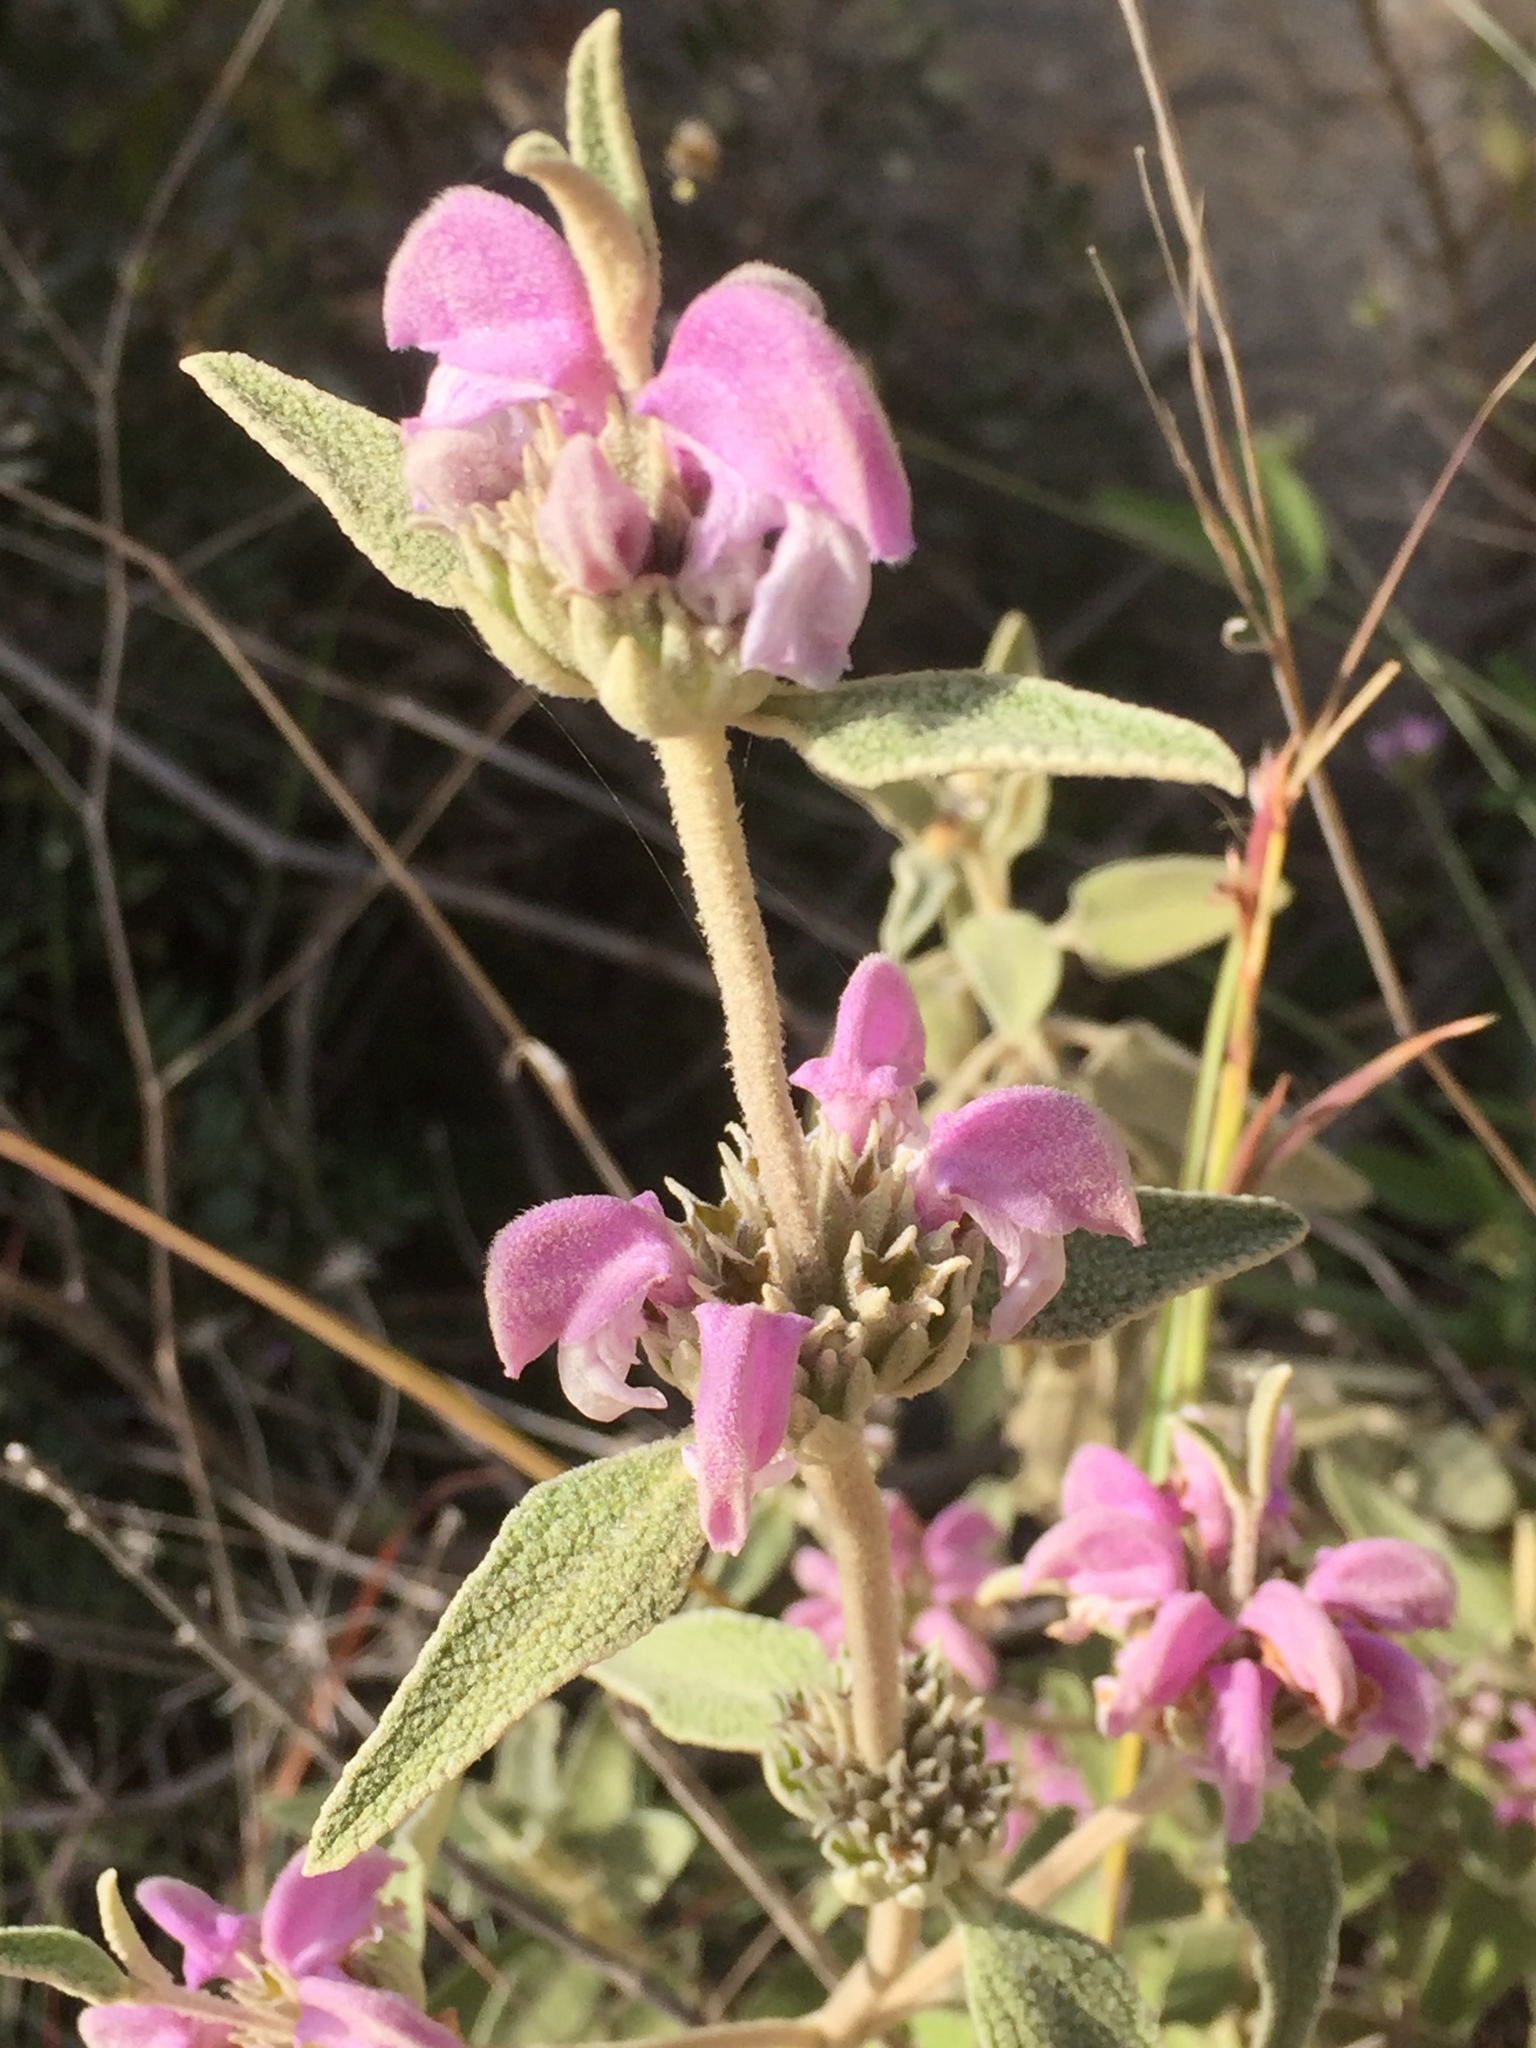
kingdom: Plantae
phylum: Tracheophyta
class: Magnoliopsida
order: Lamiales
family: Lamiaceae
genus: Phlomis
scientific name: Phlomis purpurea
